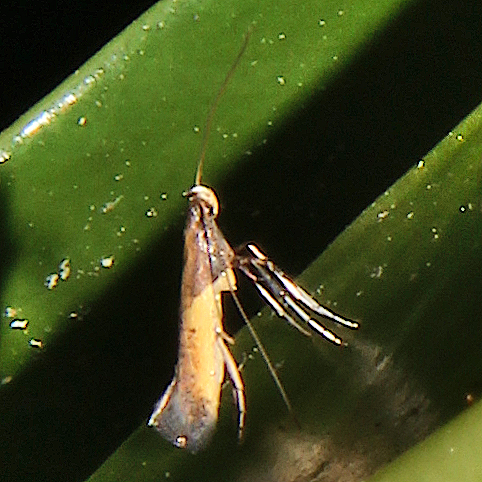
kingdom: Animalia
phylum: Arthropoda
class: Insecta
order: Lepidoptera
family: Gracillariidae
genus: Caloptilia
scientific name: Caloptilia azaleella
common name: Azalea leafminer
